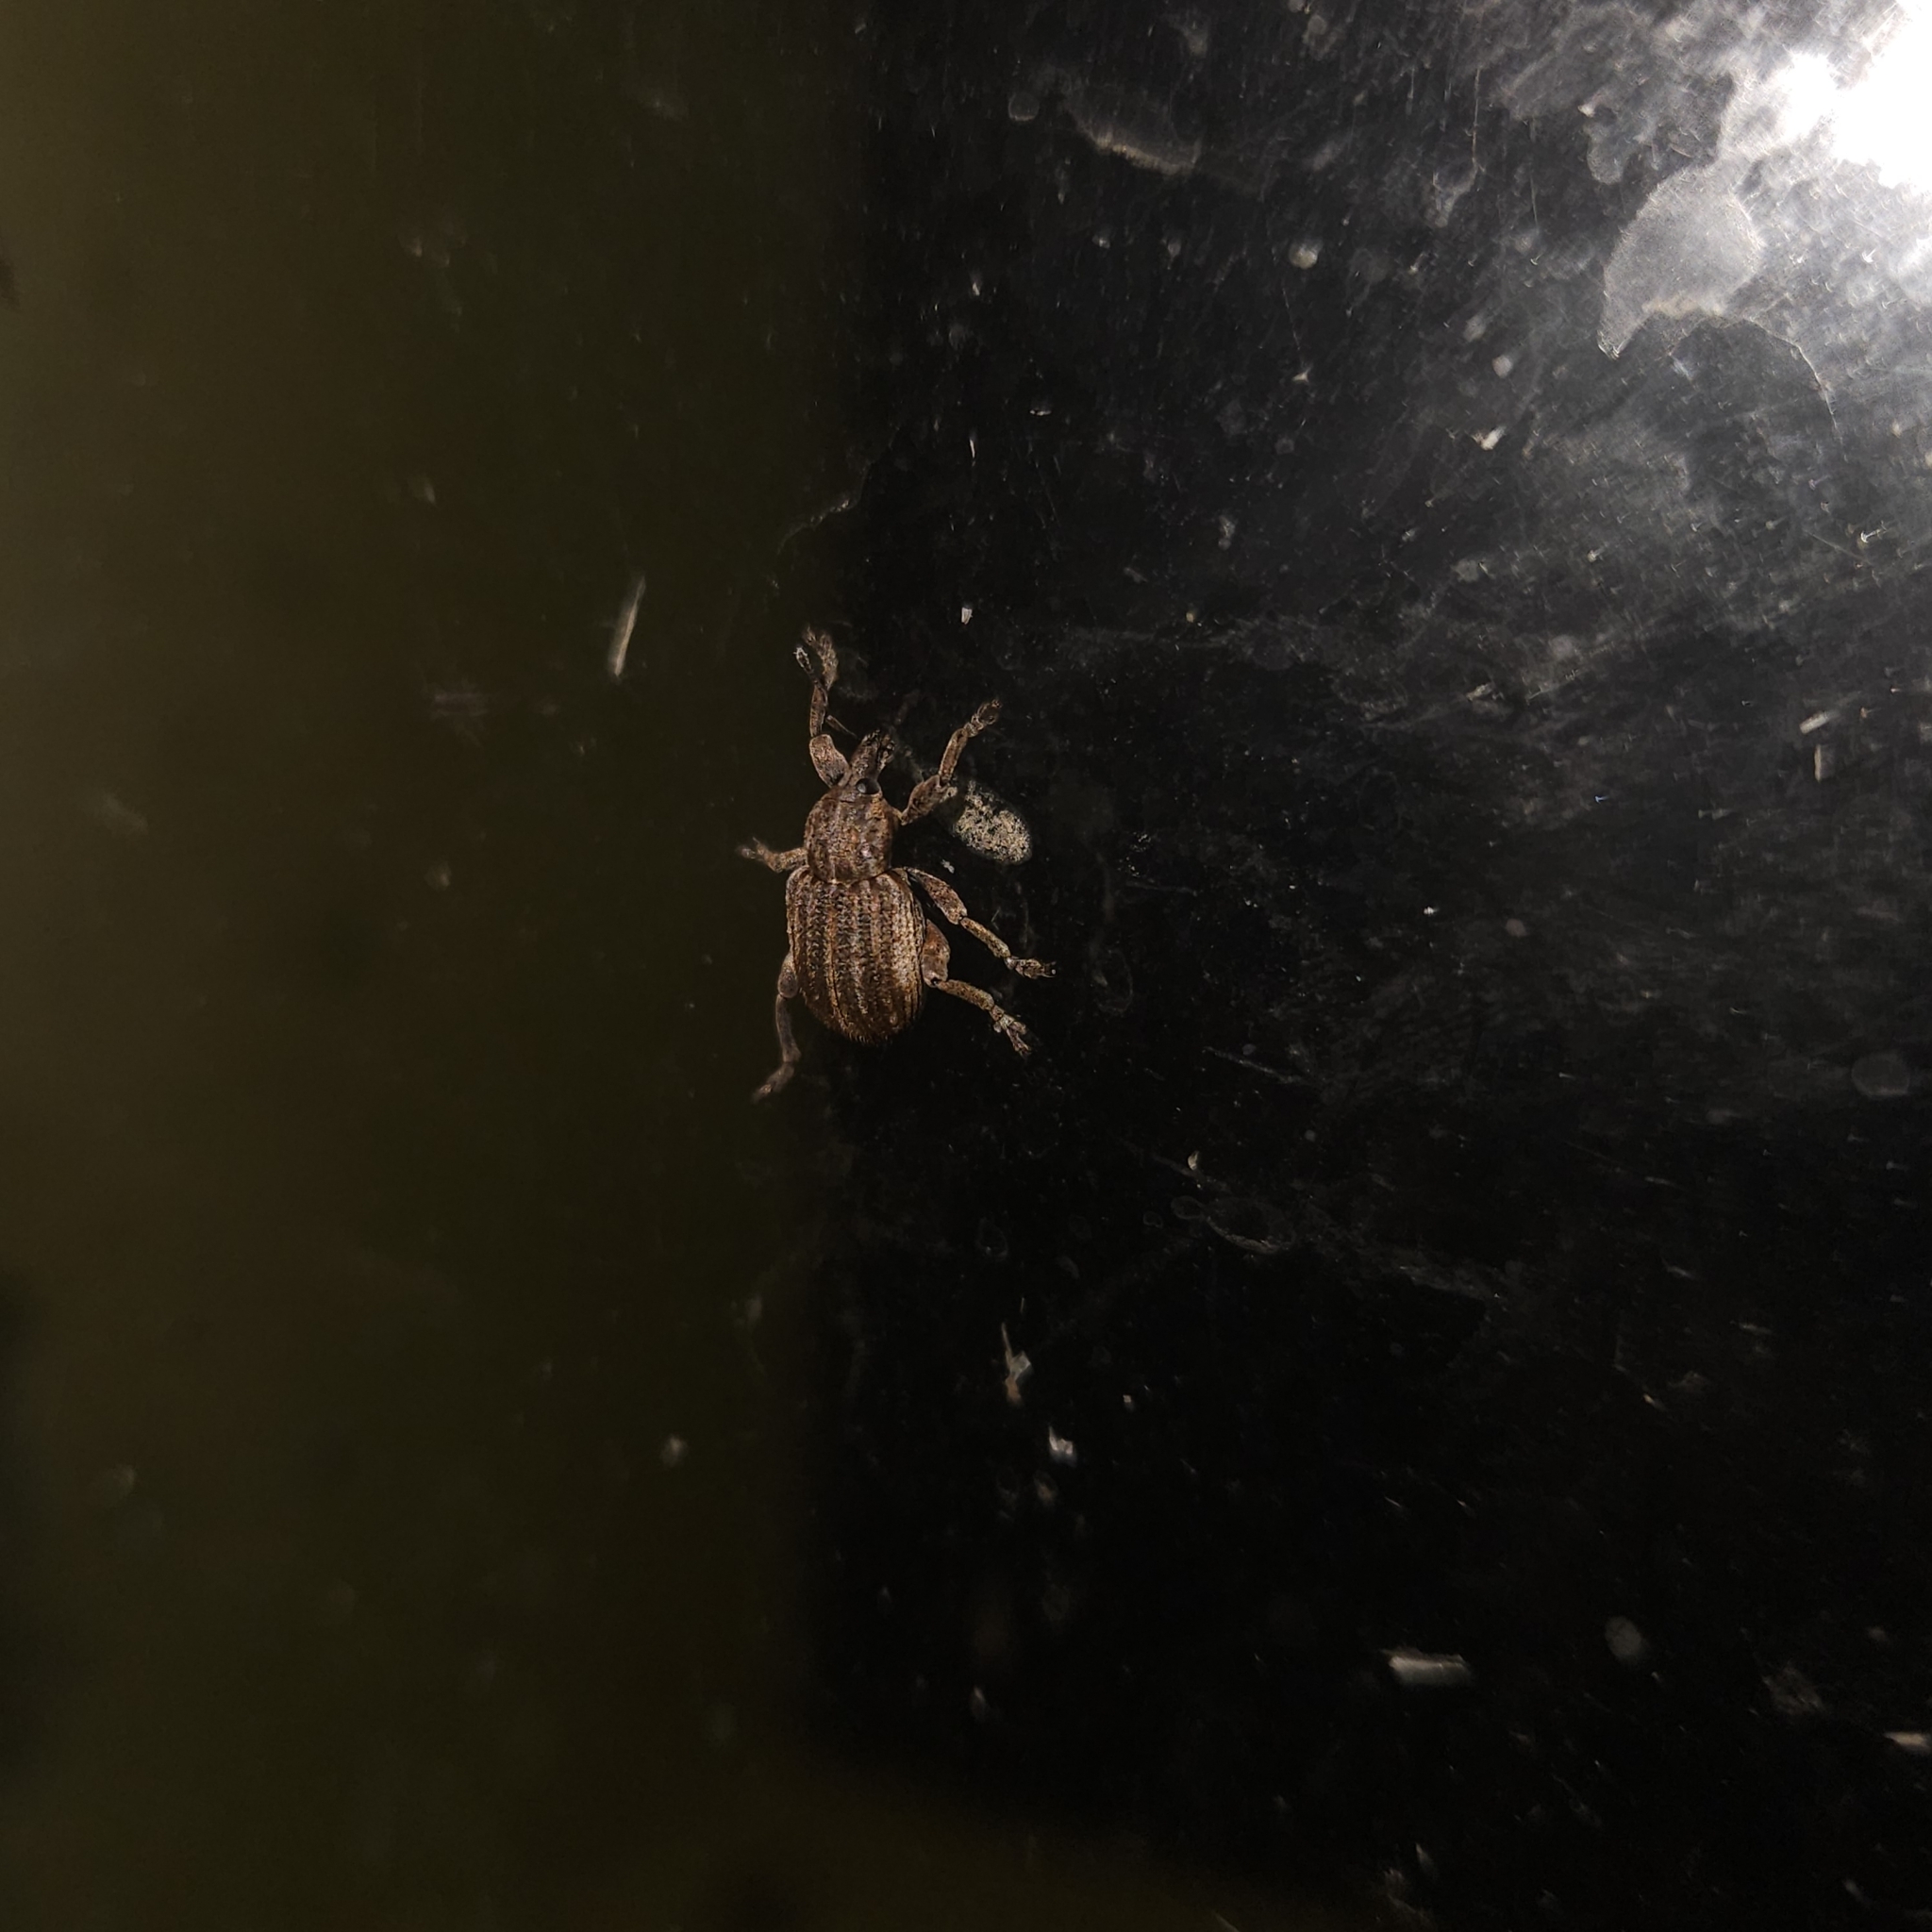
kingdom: Animalia
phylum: Arthropoda
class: Insecta
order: Coleoptera
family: Curculionidae
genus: Brachypera
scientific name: Brachypera zoilus
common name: Clover leaf weevil
